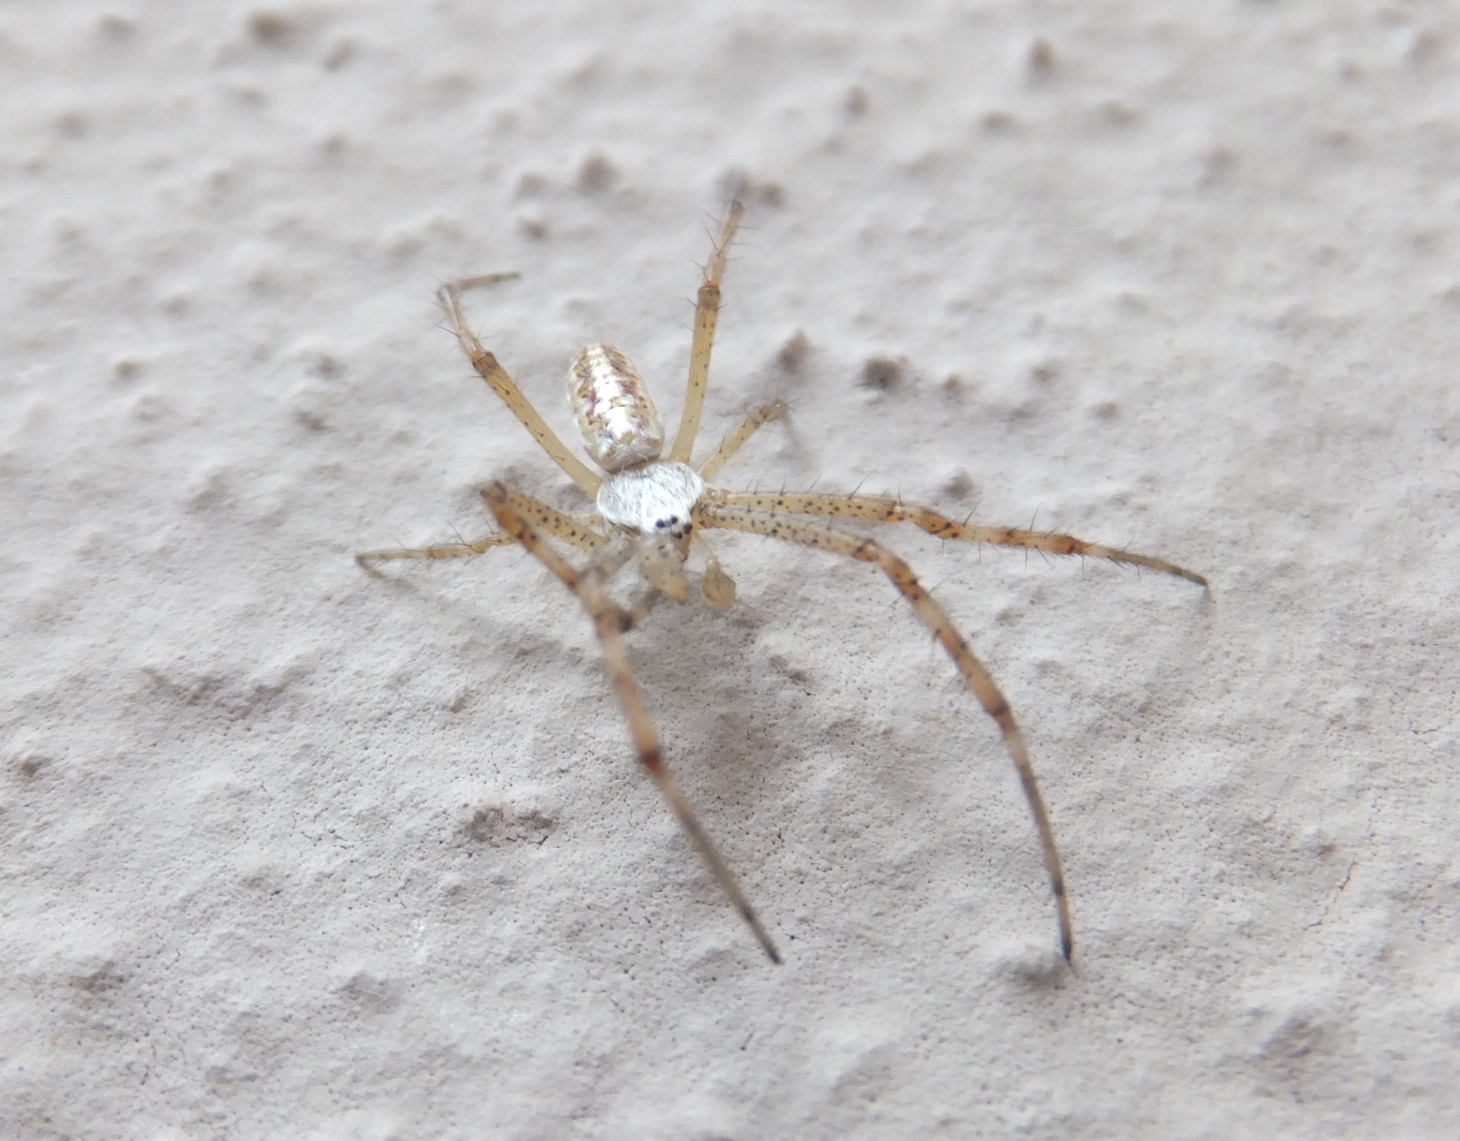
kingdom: Animalia
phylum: Arthropoda
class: Arachnida
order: Araneae
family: Araneidae
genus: Argiope
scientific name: Argiope bruennichi
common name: Wasp spider
